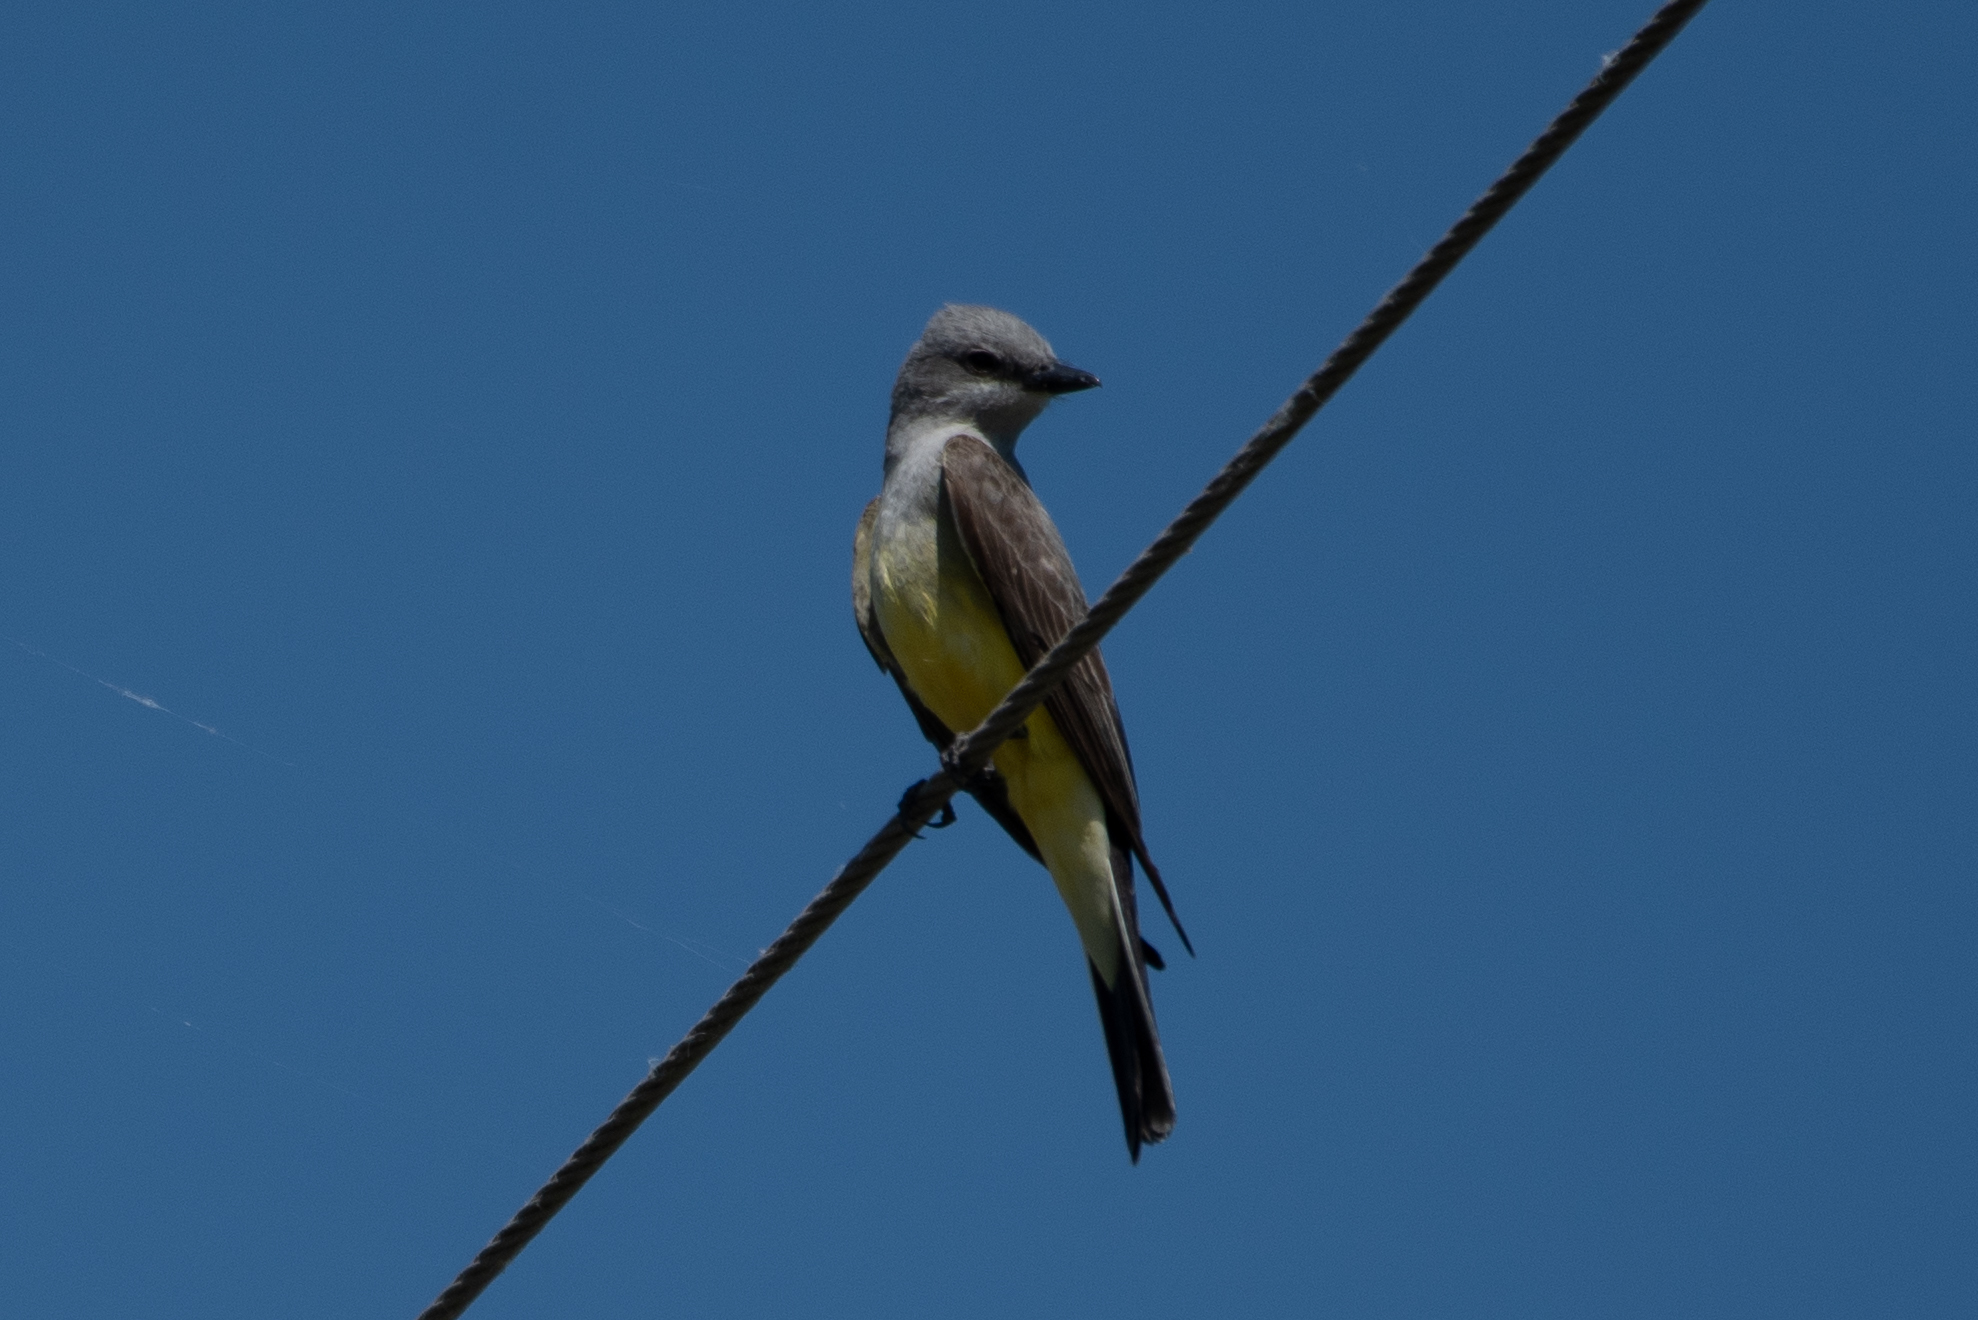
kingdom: Animalia
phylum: Chordata
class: Aves
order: Passeriformes
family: Tyrannidae
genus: Tyrannus
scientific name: Tyrannus verticalis
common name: Western kingbird
